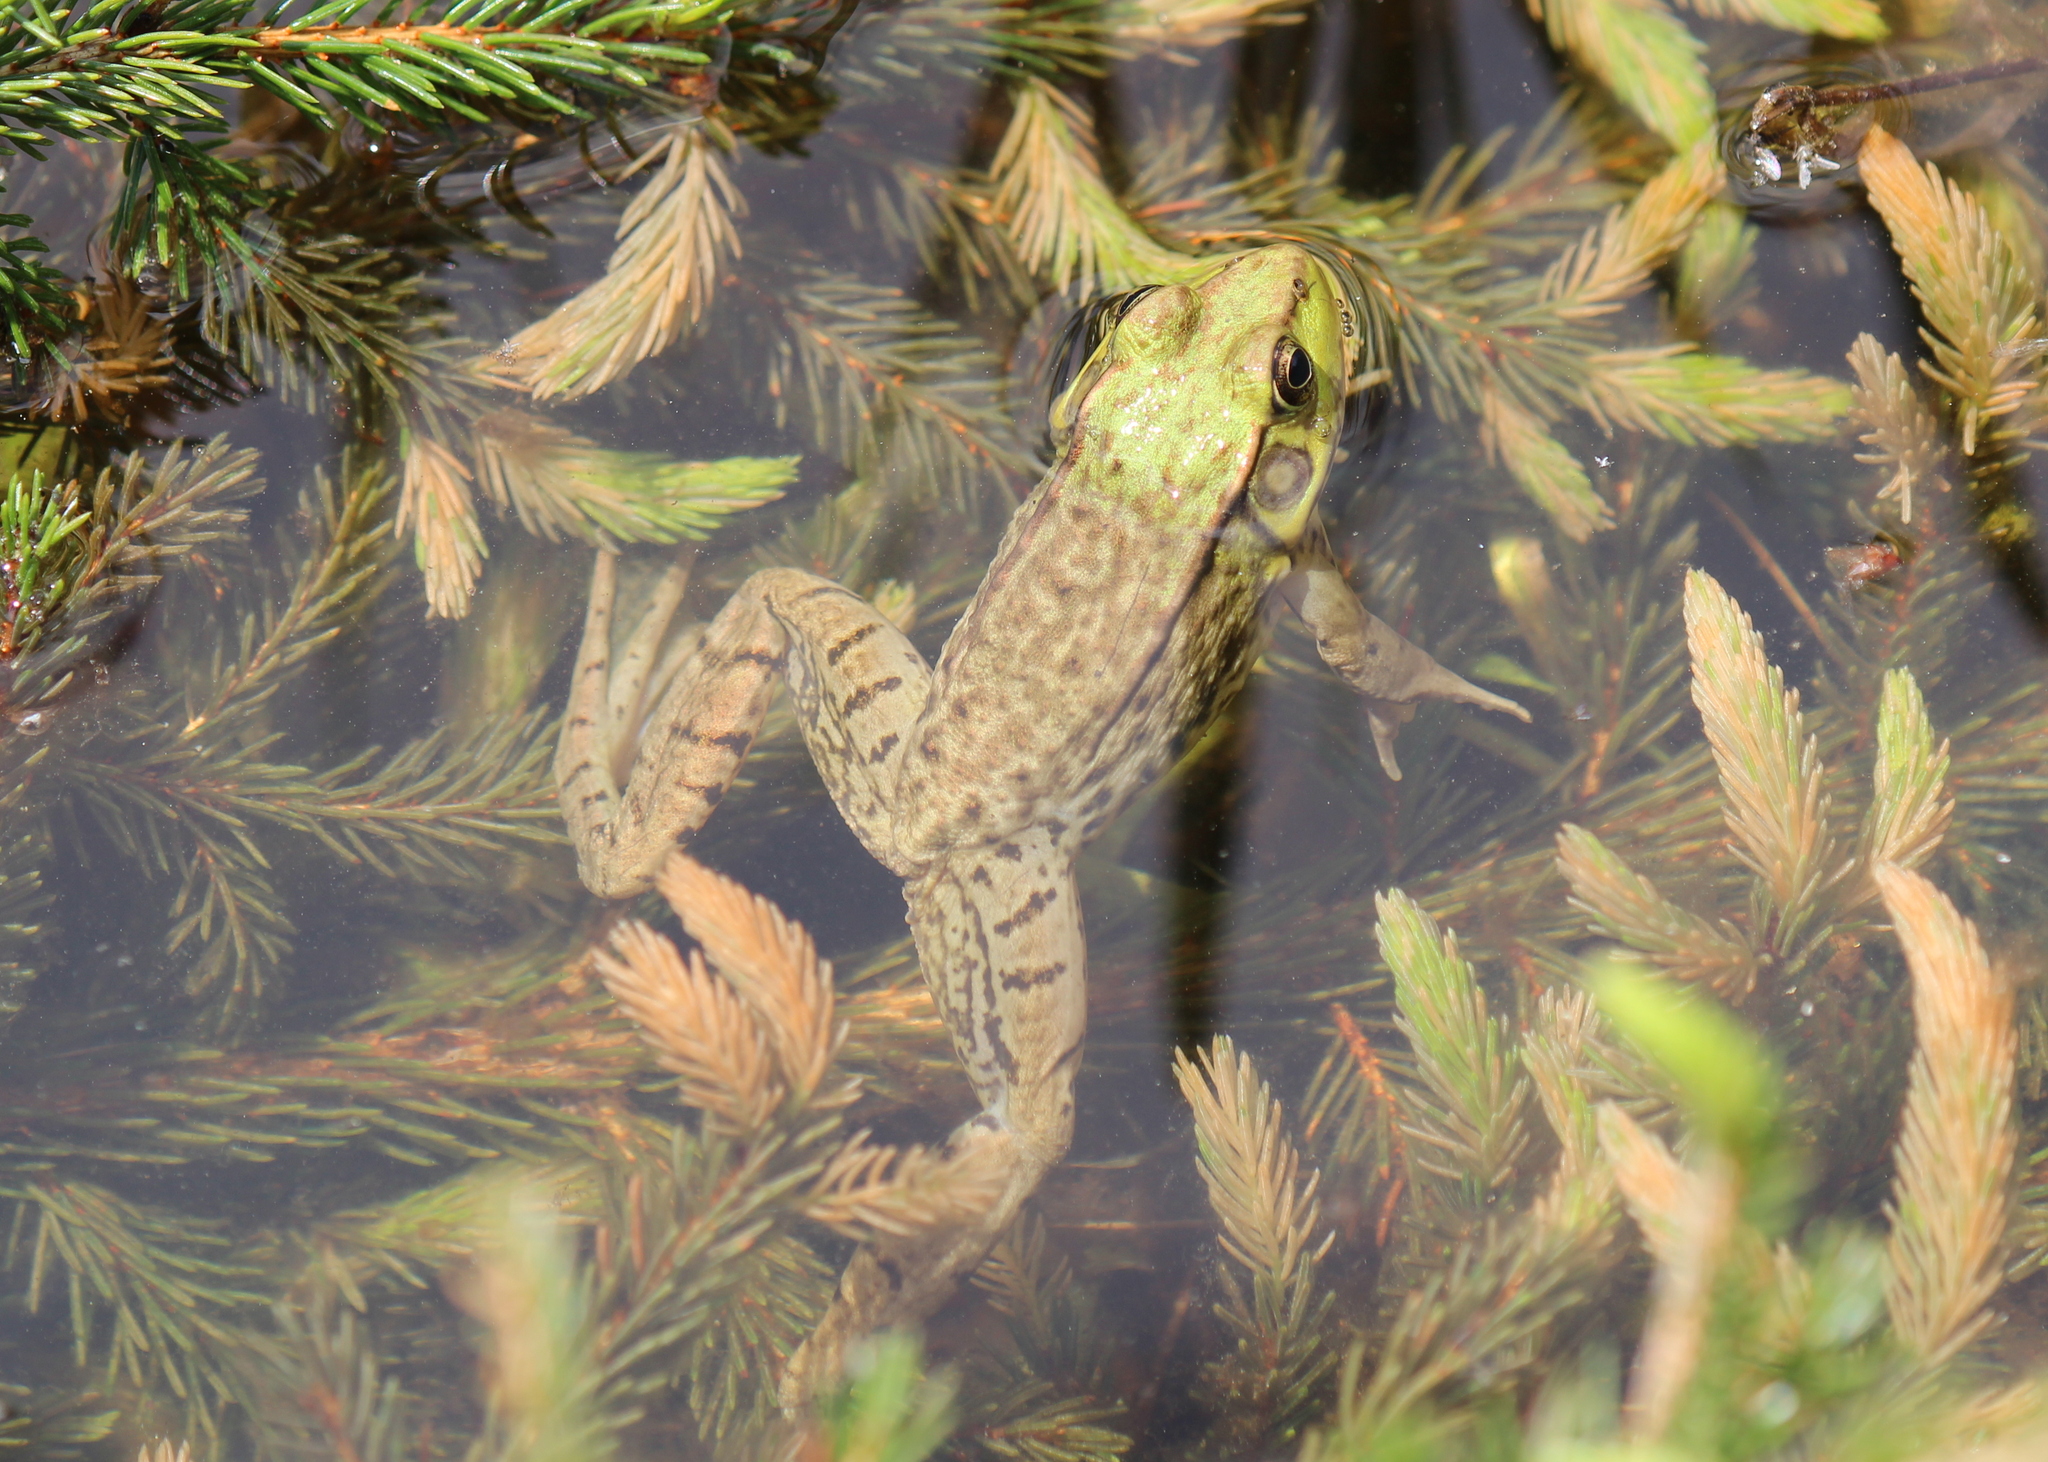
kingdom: Animalia
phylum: Chordata
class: Amphibia
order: Anura
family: Ranidae
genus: Lithobates
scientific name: Lithobates clamitans
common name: Green frog
